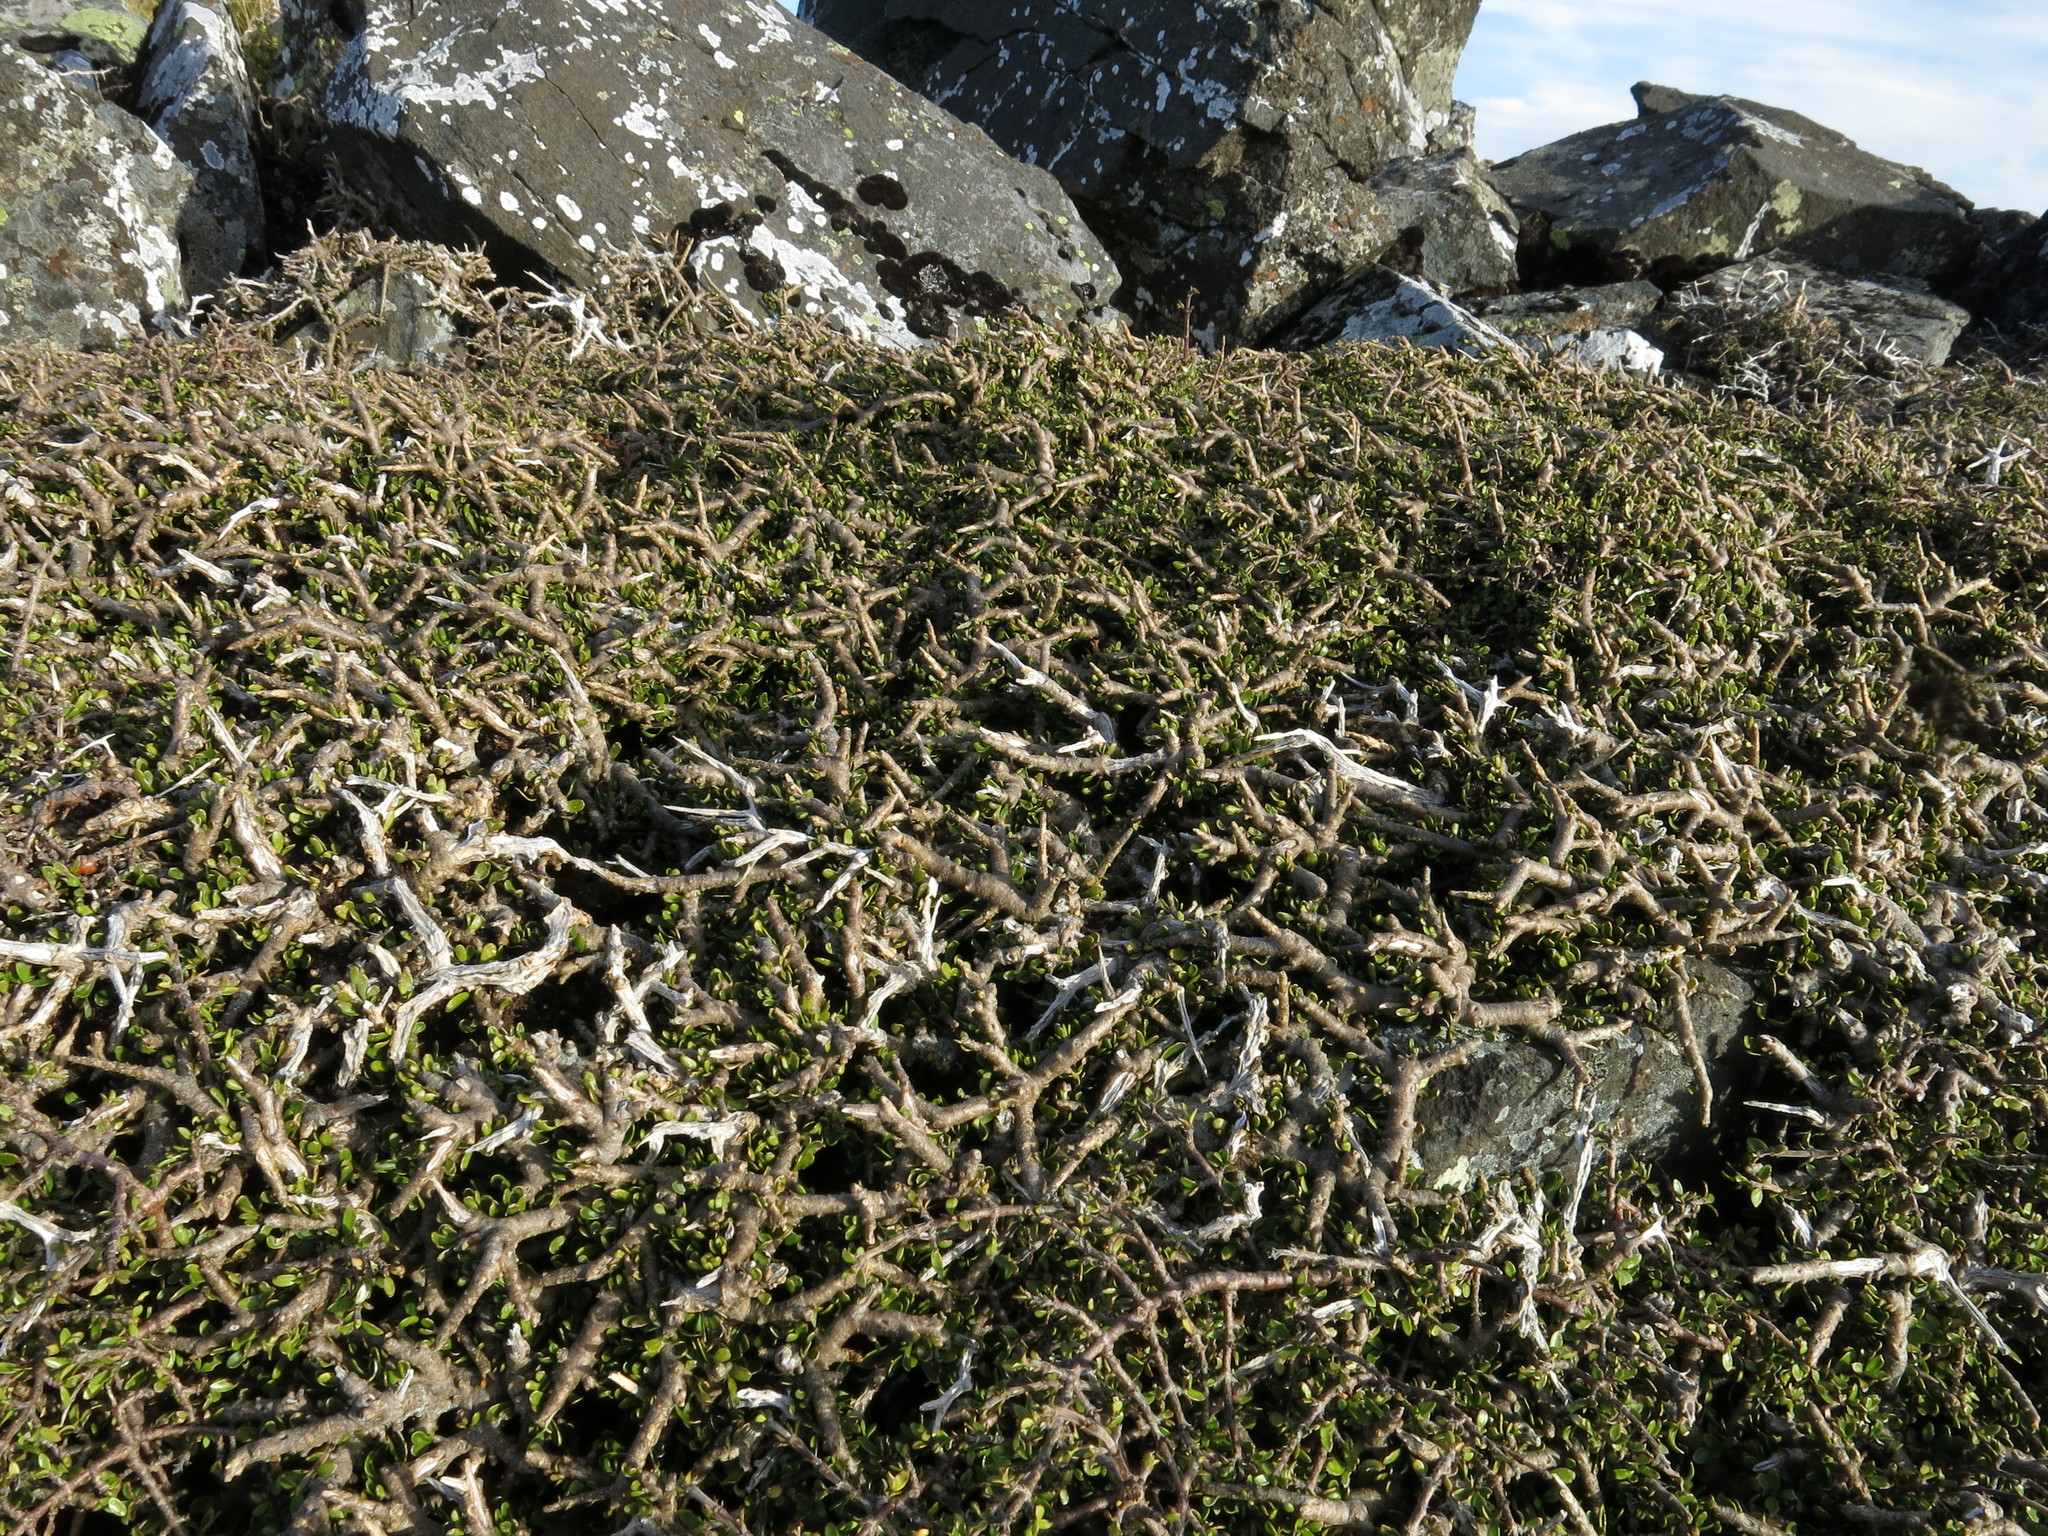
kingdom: Plantae
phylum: Tracheophyta
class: Magnoliopsida
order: Malpighiales
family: Violaceae
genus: Melicytus
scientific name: Melicytus alpinus
